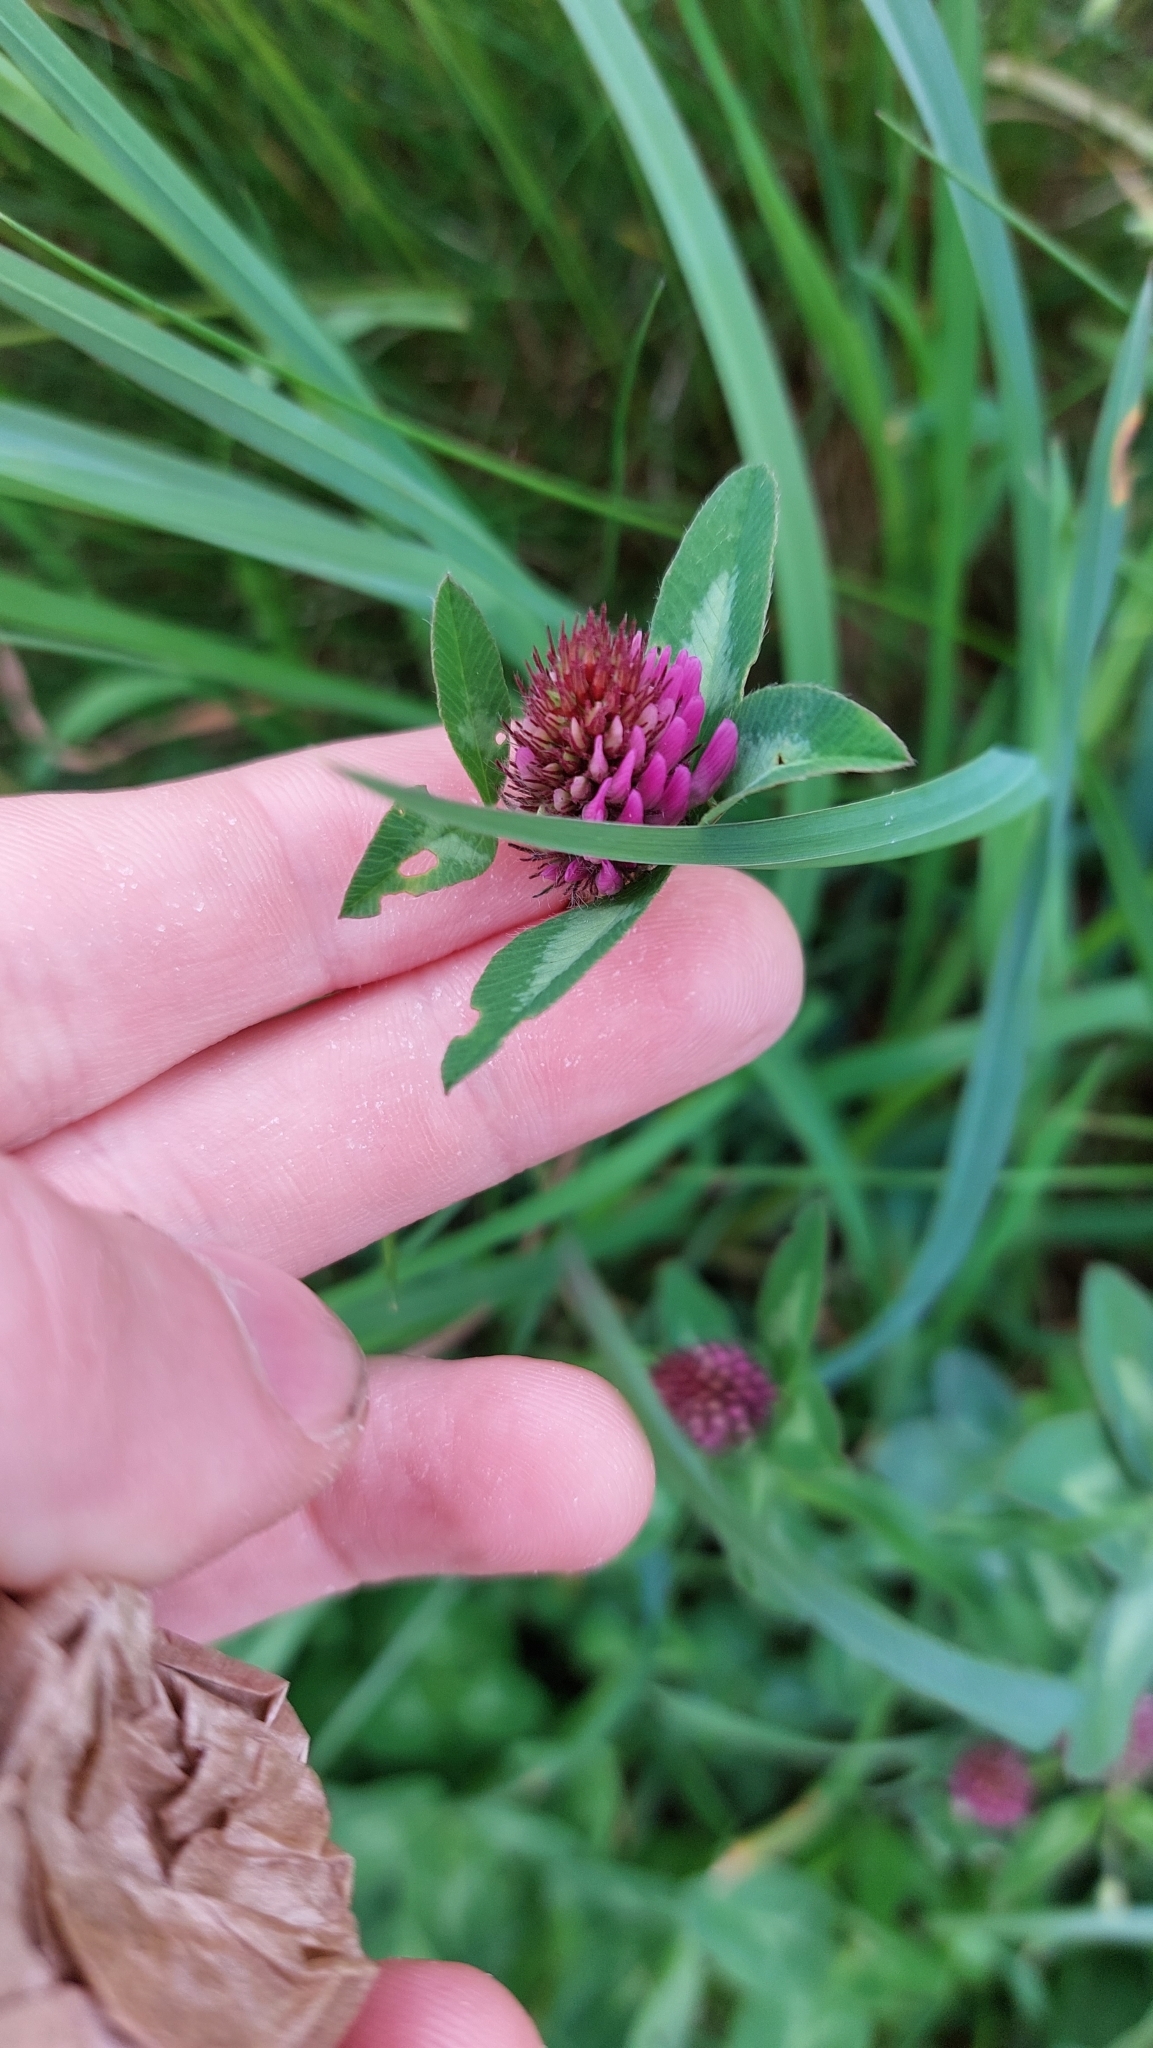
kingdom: Plantae
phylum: Tracheophyta
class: Magnoliopsida
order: Fabales
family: Fabaceae
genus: Trifolium
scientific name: Trifolium pratense
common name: Red clover
